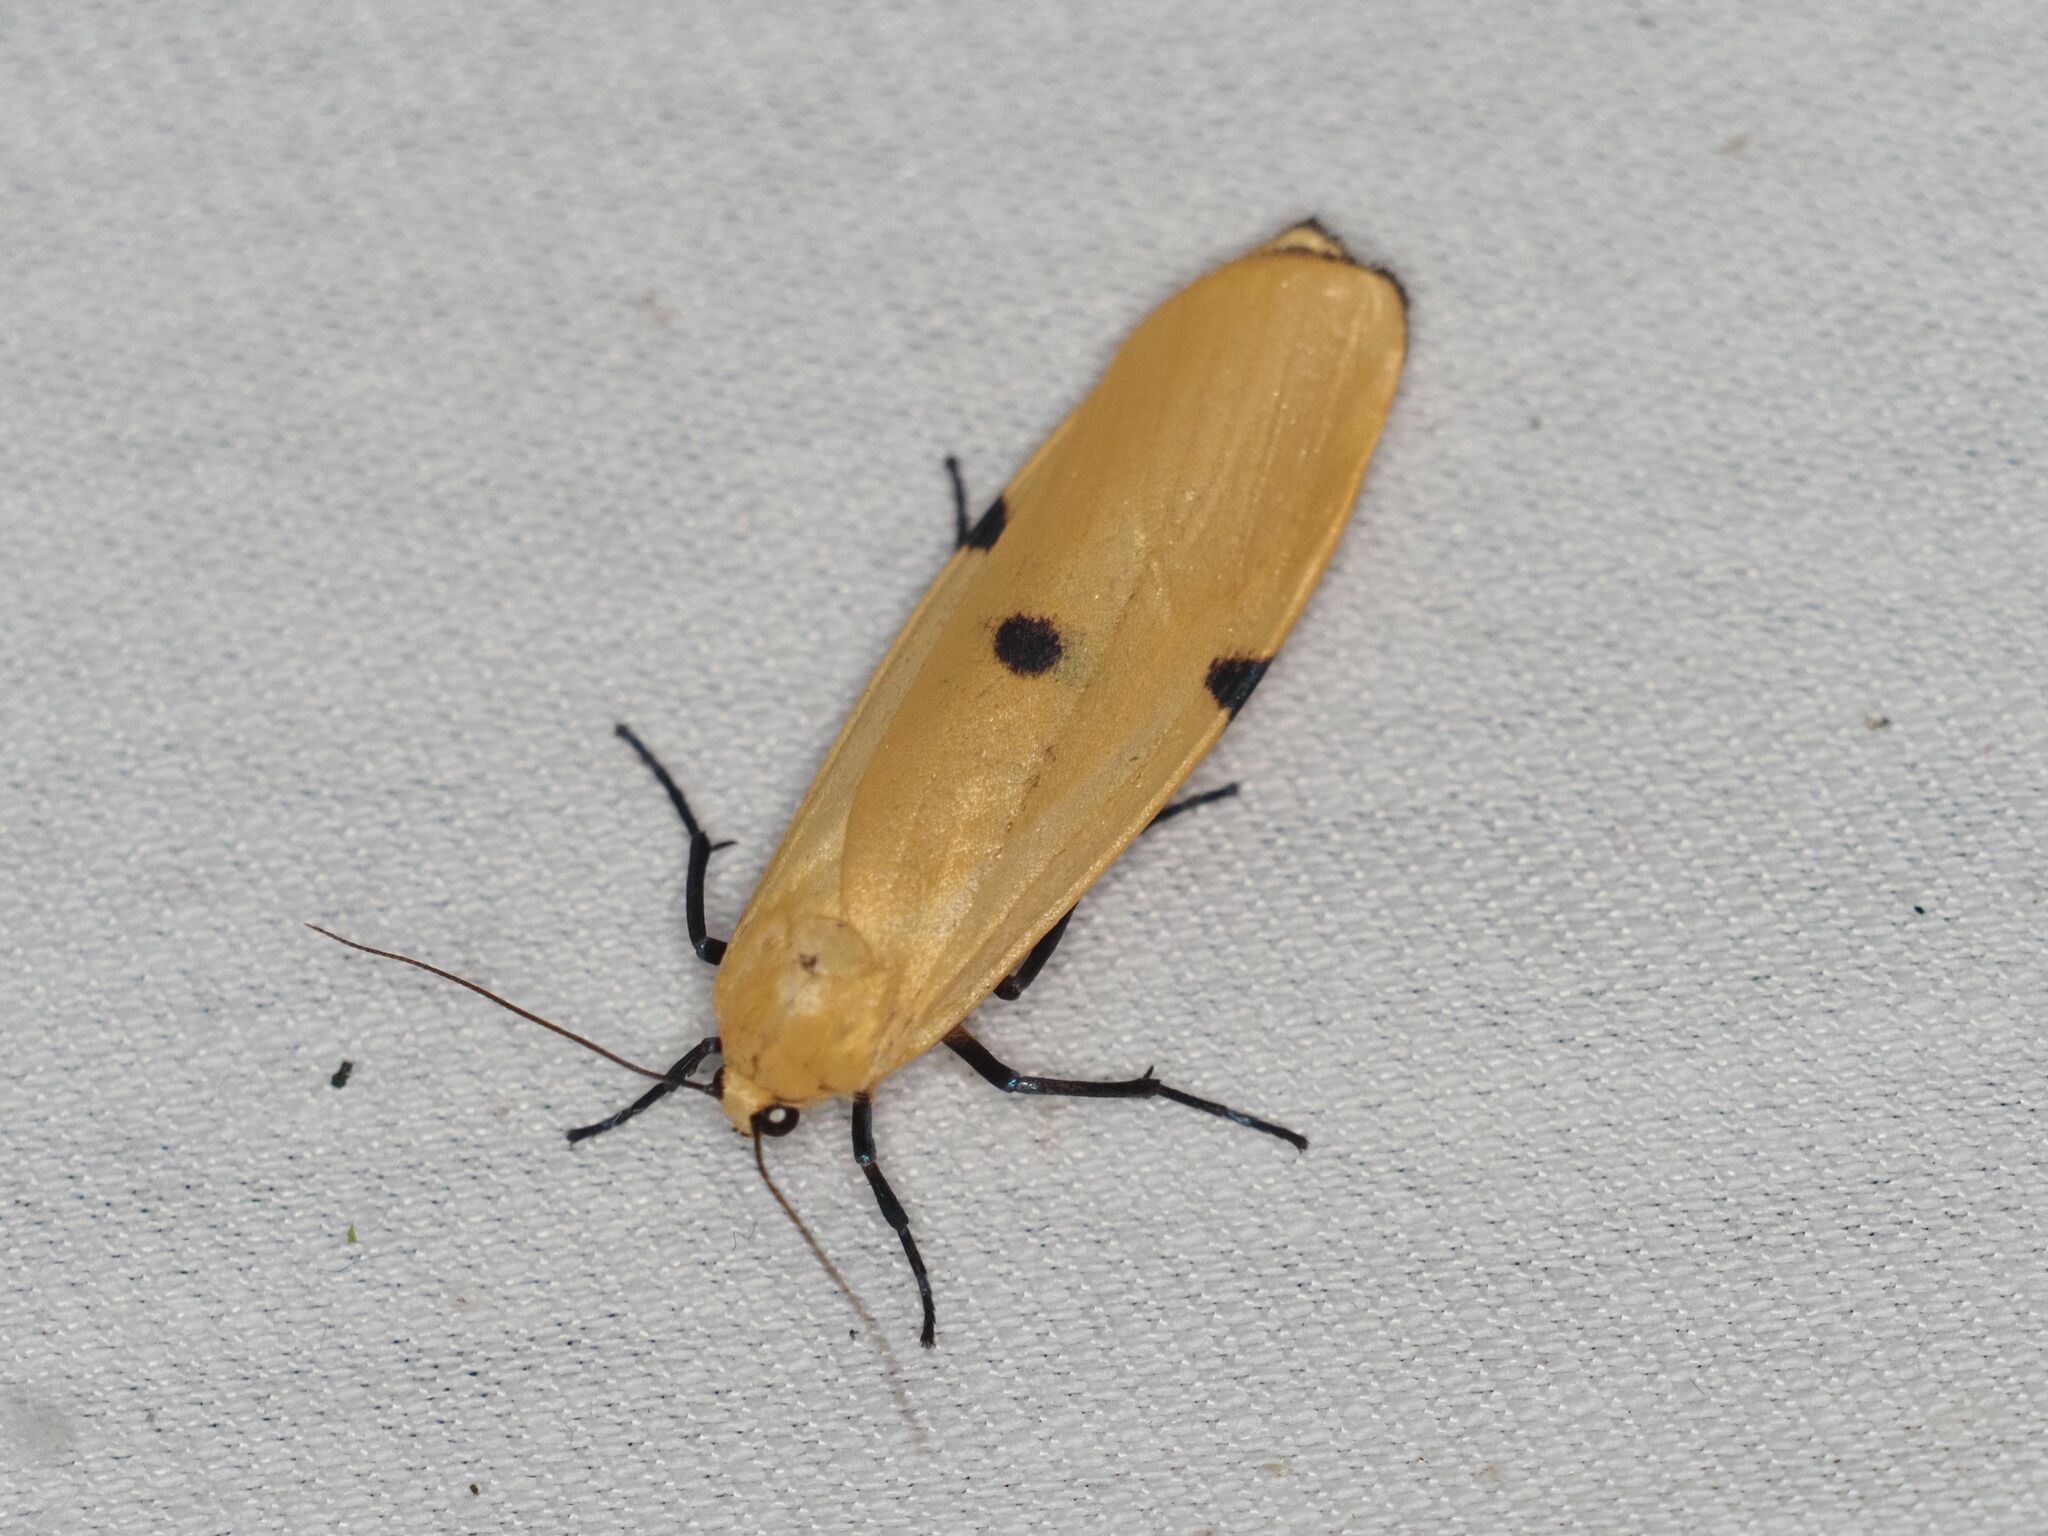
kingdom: Animalia
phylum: Arthropoda
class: Insecta
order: Lepidoptera
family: Erebidae
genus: Lithosia
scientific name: Lithosia quadra
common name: Four-spotted footman
